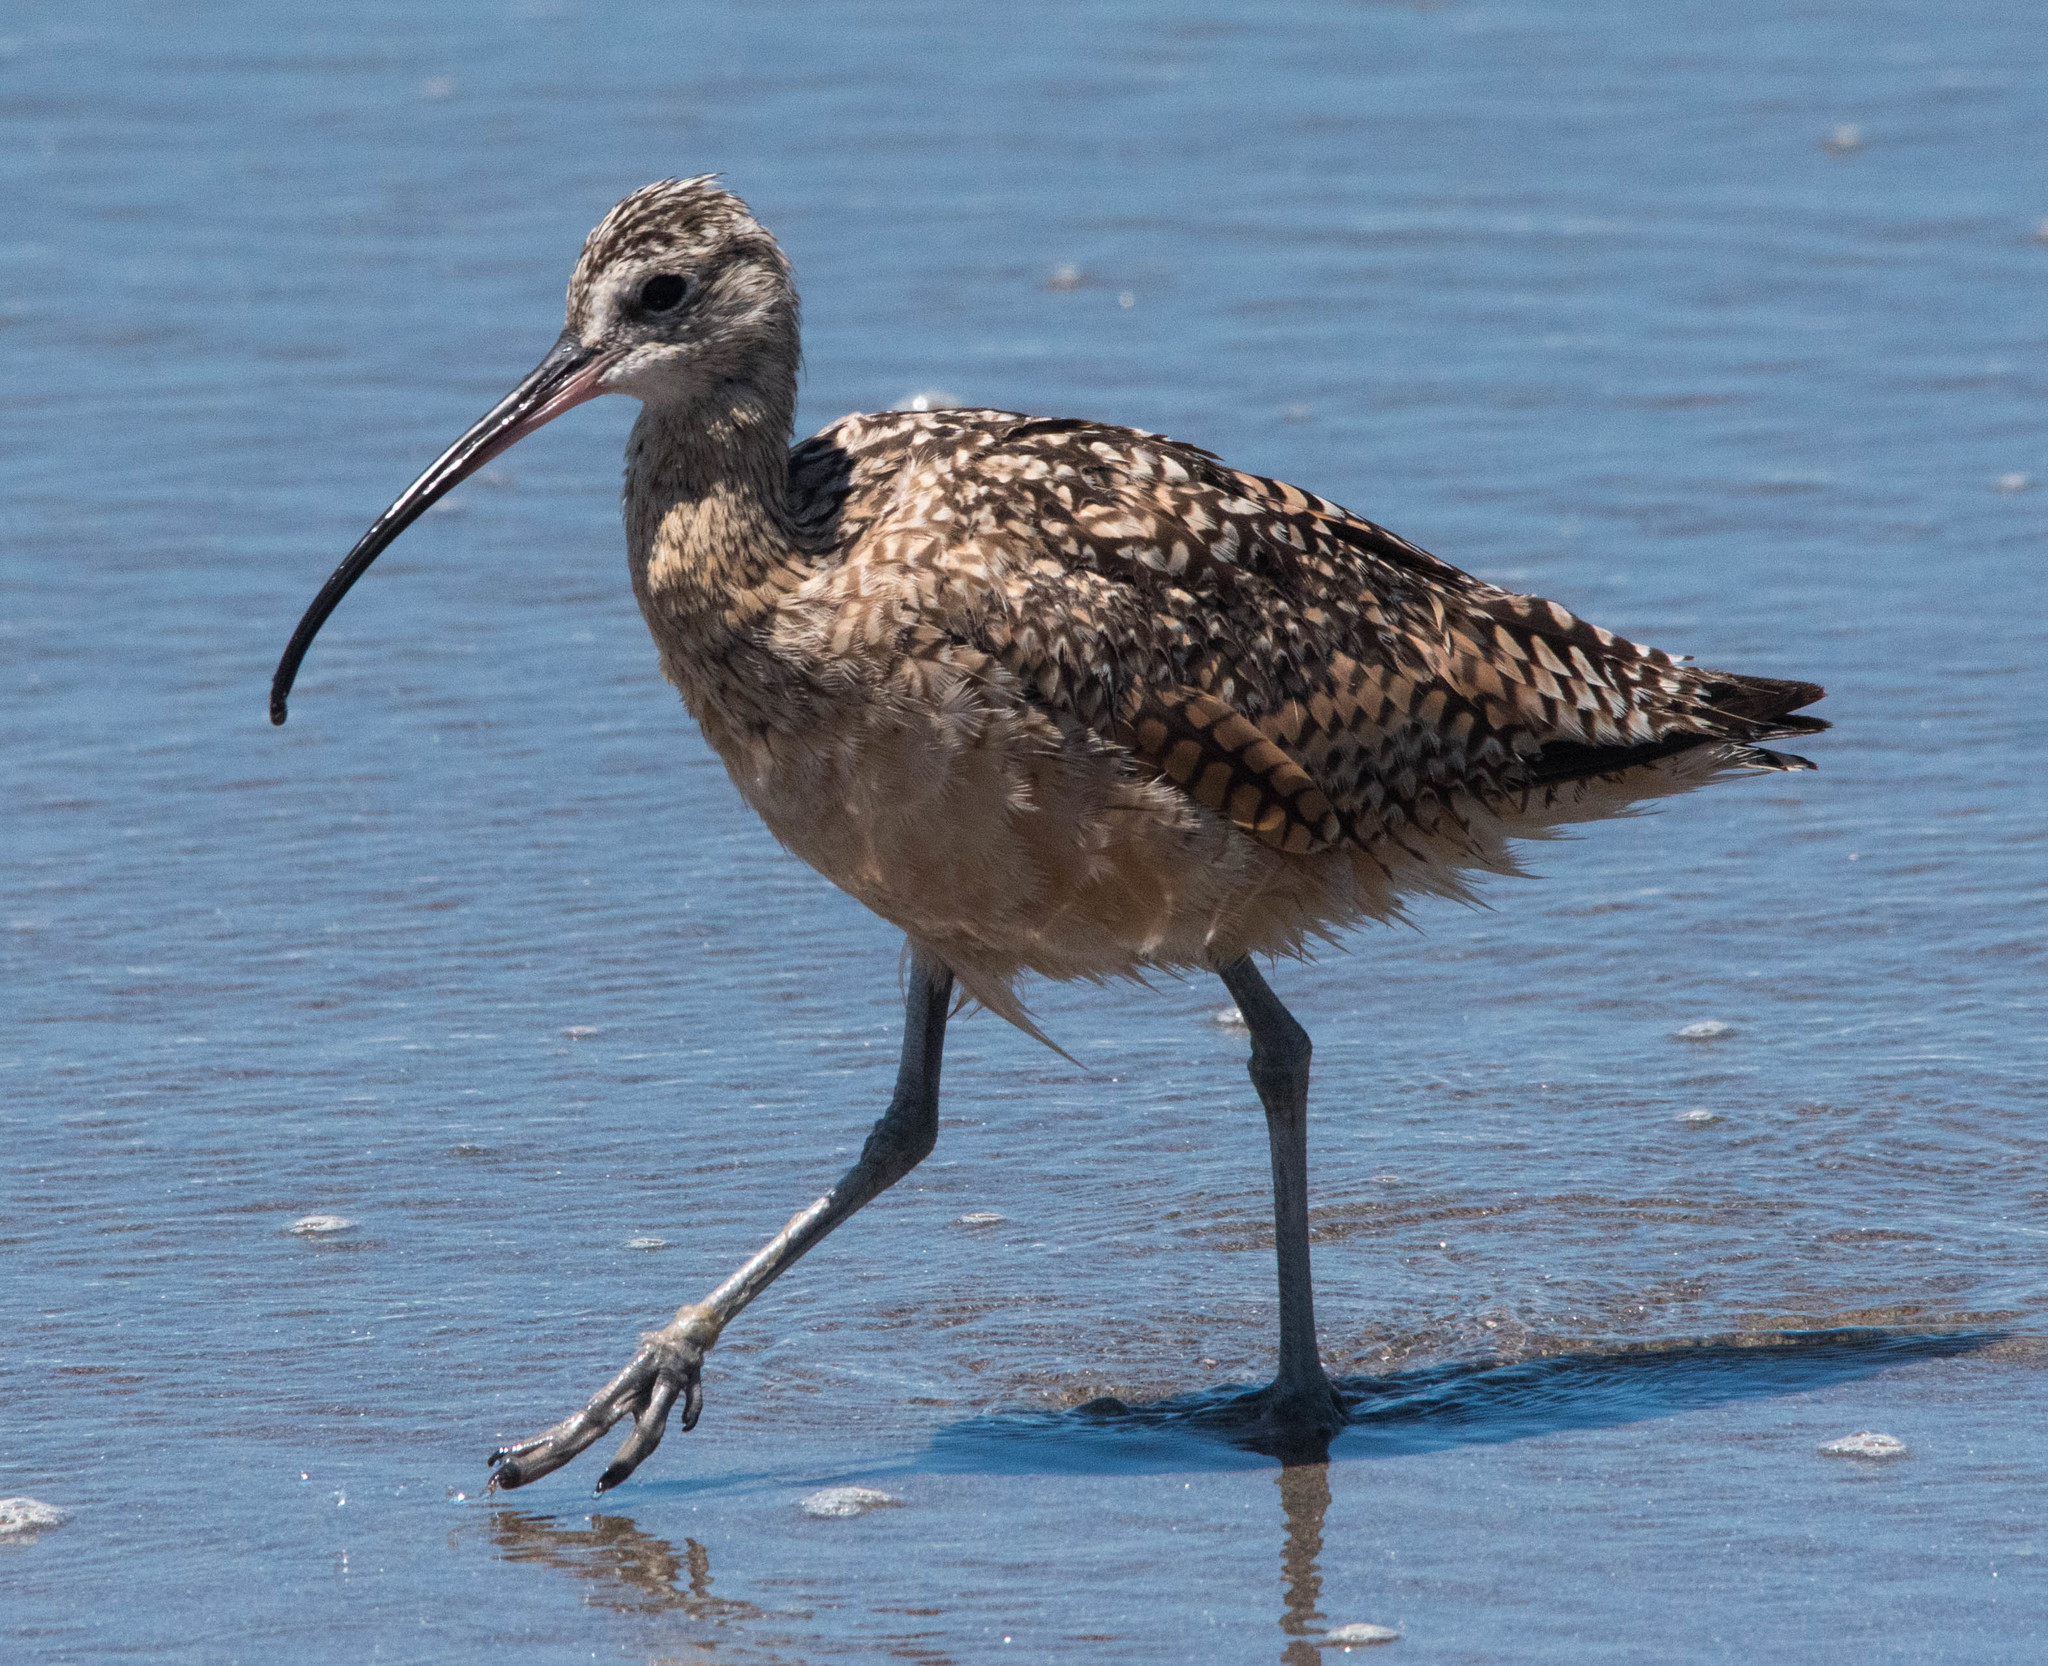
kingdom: Animalia
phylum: Chordata
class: Aves
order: Charadriiformes
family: Scolopacidae
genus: Numenius
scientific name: Numenius americanus
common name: Long-billed curlew
